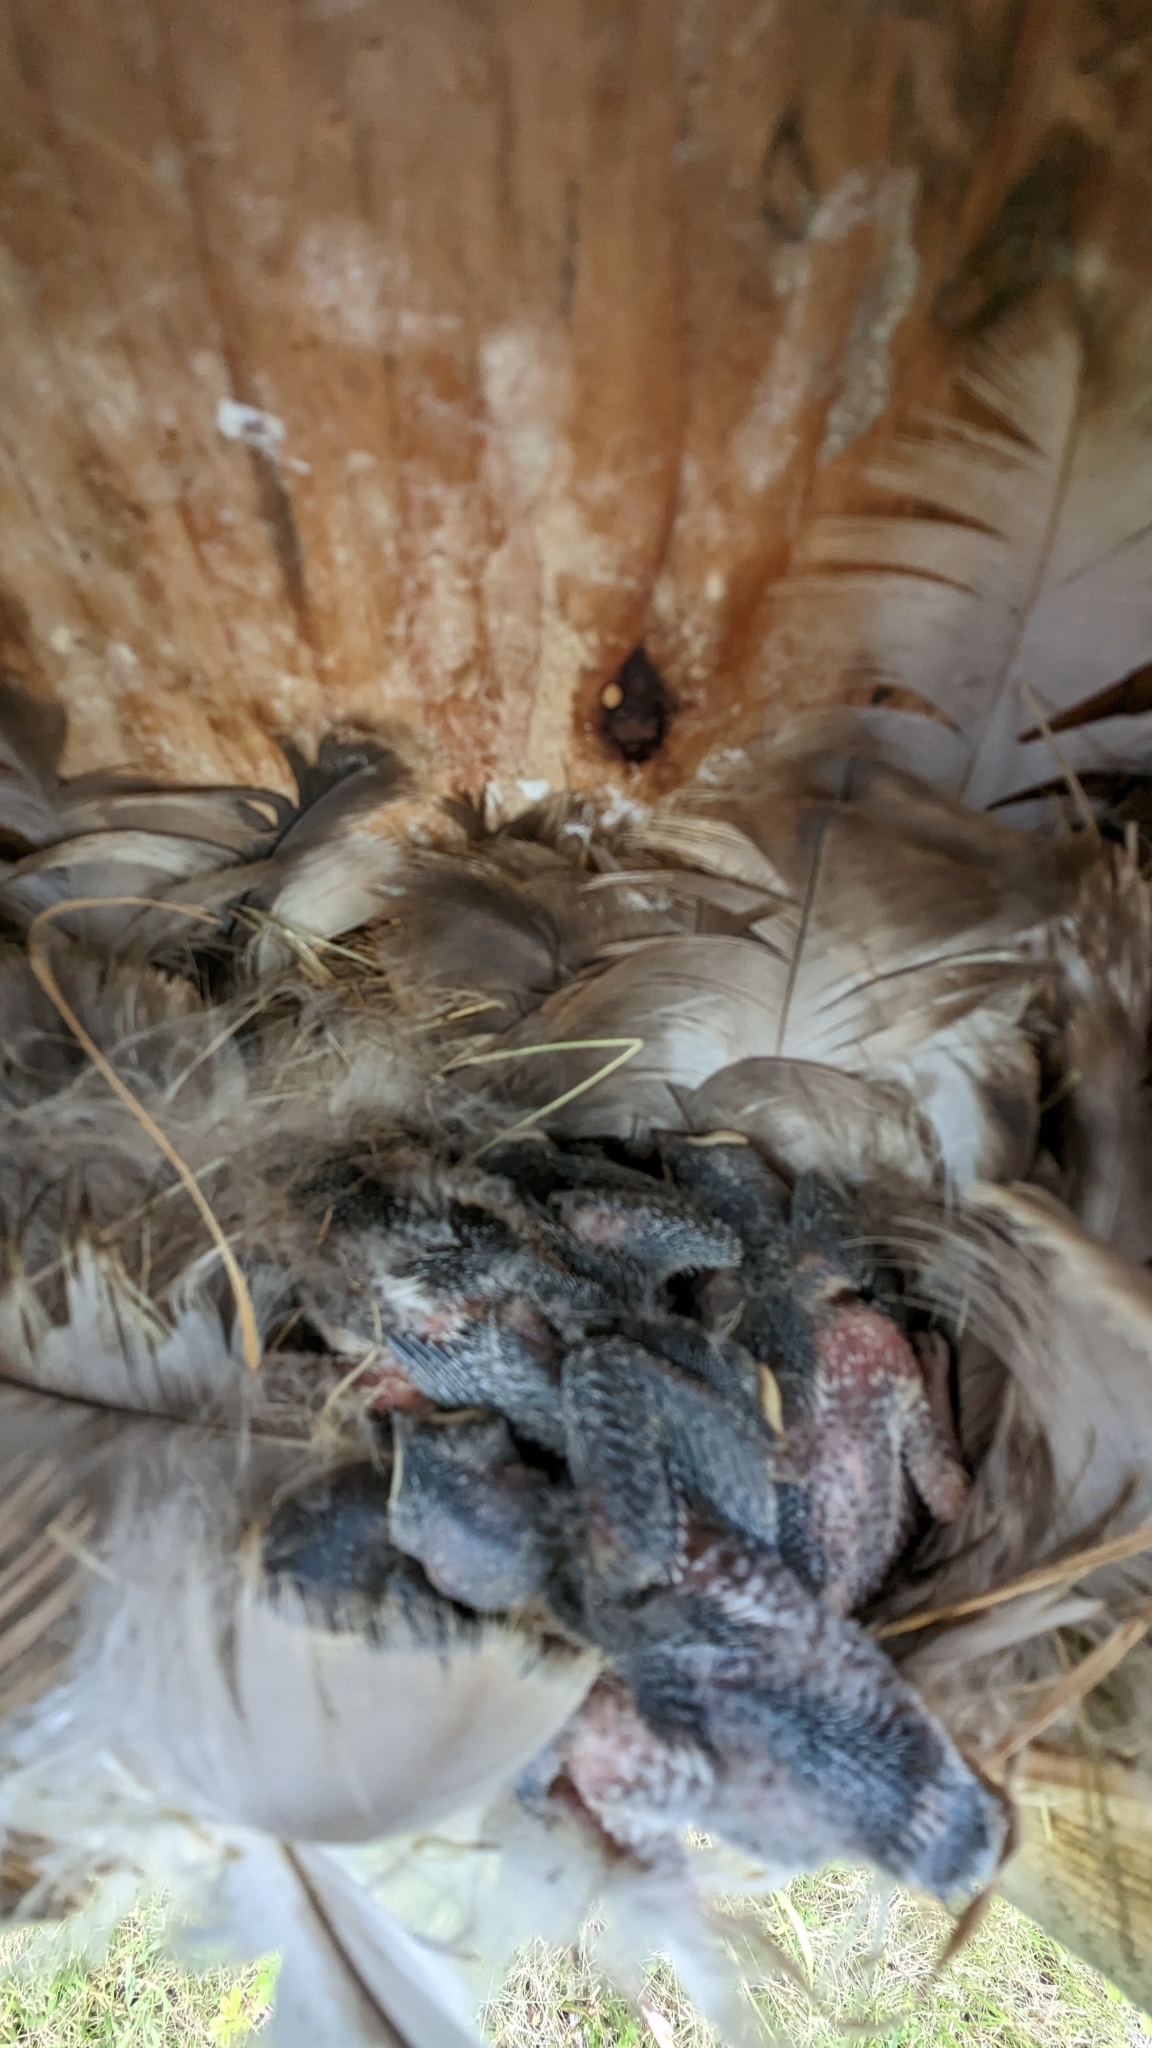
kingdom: Animalia
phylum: Chordata
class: Aves
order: Passeriformes
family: Hirundinidae
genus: Tachycineta
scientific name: Tachycineta bicolor
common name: Tree swallow
